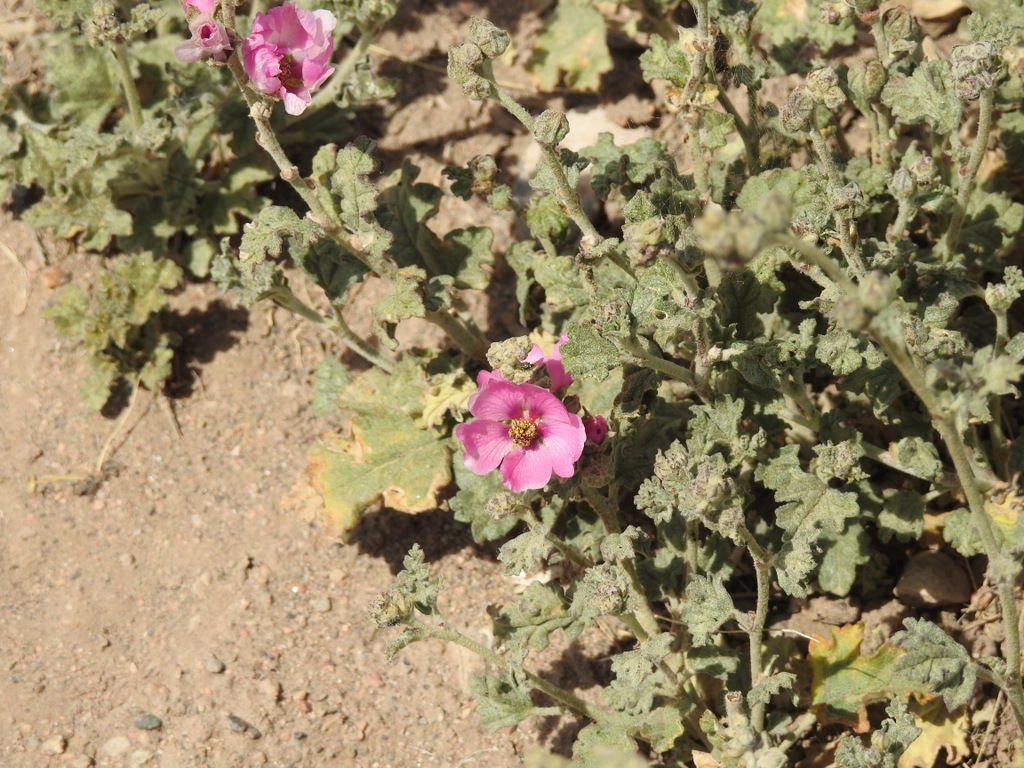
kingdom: Plantae
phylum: Tracheophyta
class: Magnoliopsida
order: Malvales
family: Malvaceae
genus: Sphaeralcea
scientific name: Sphaeralcea mendocina
